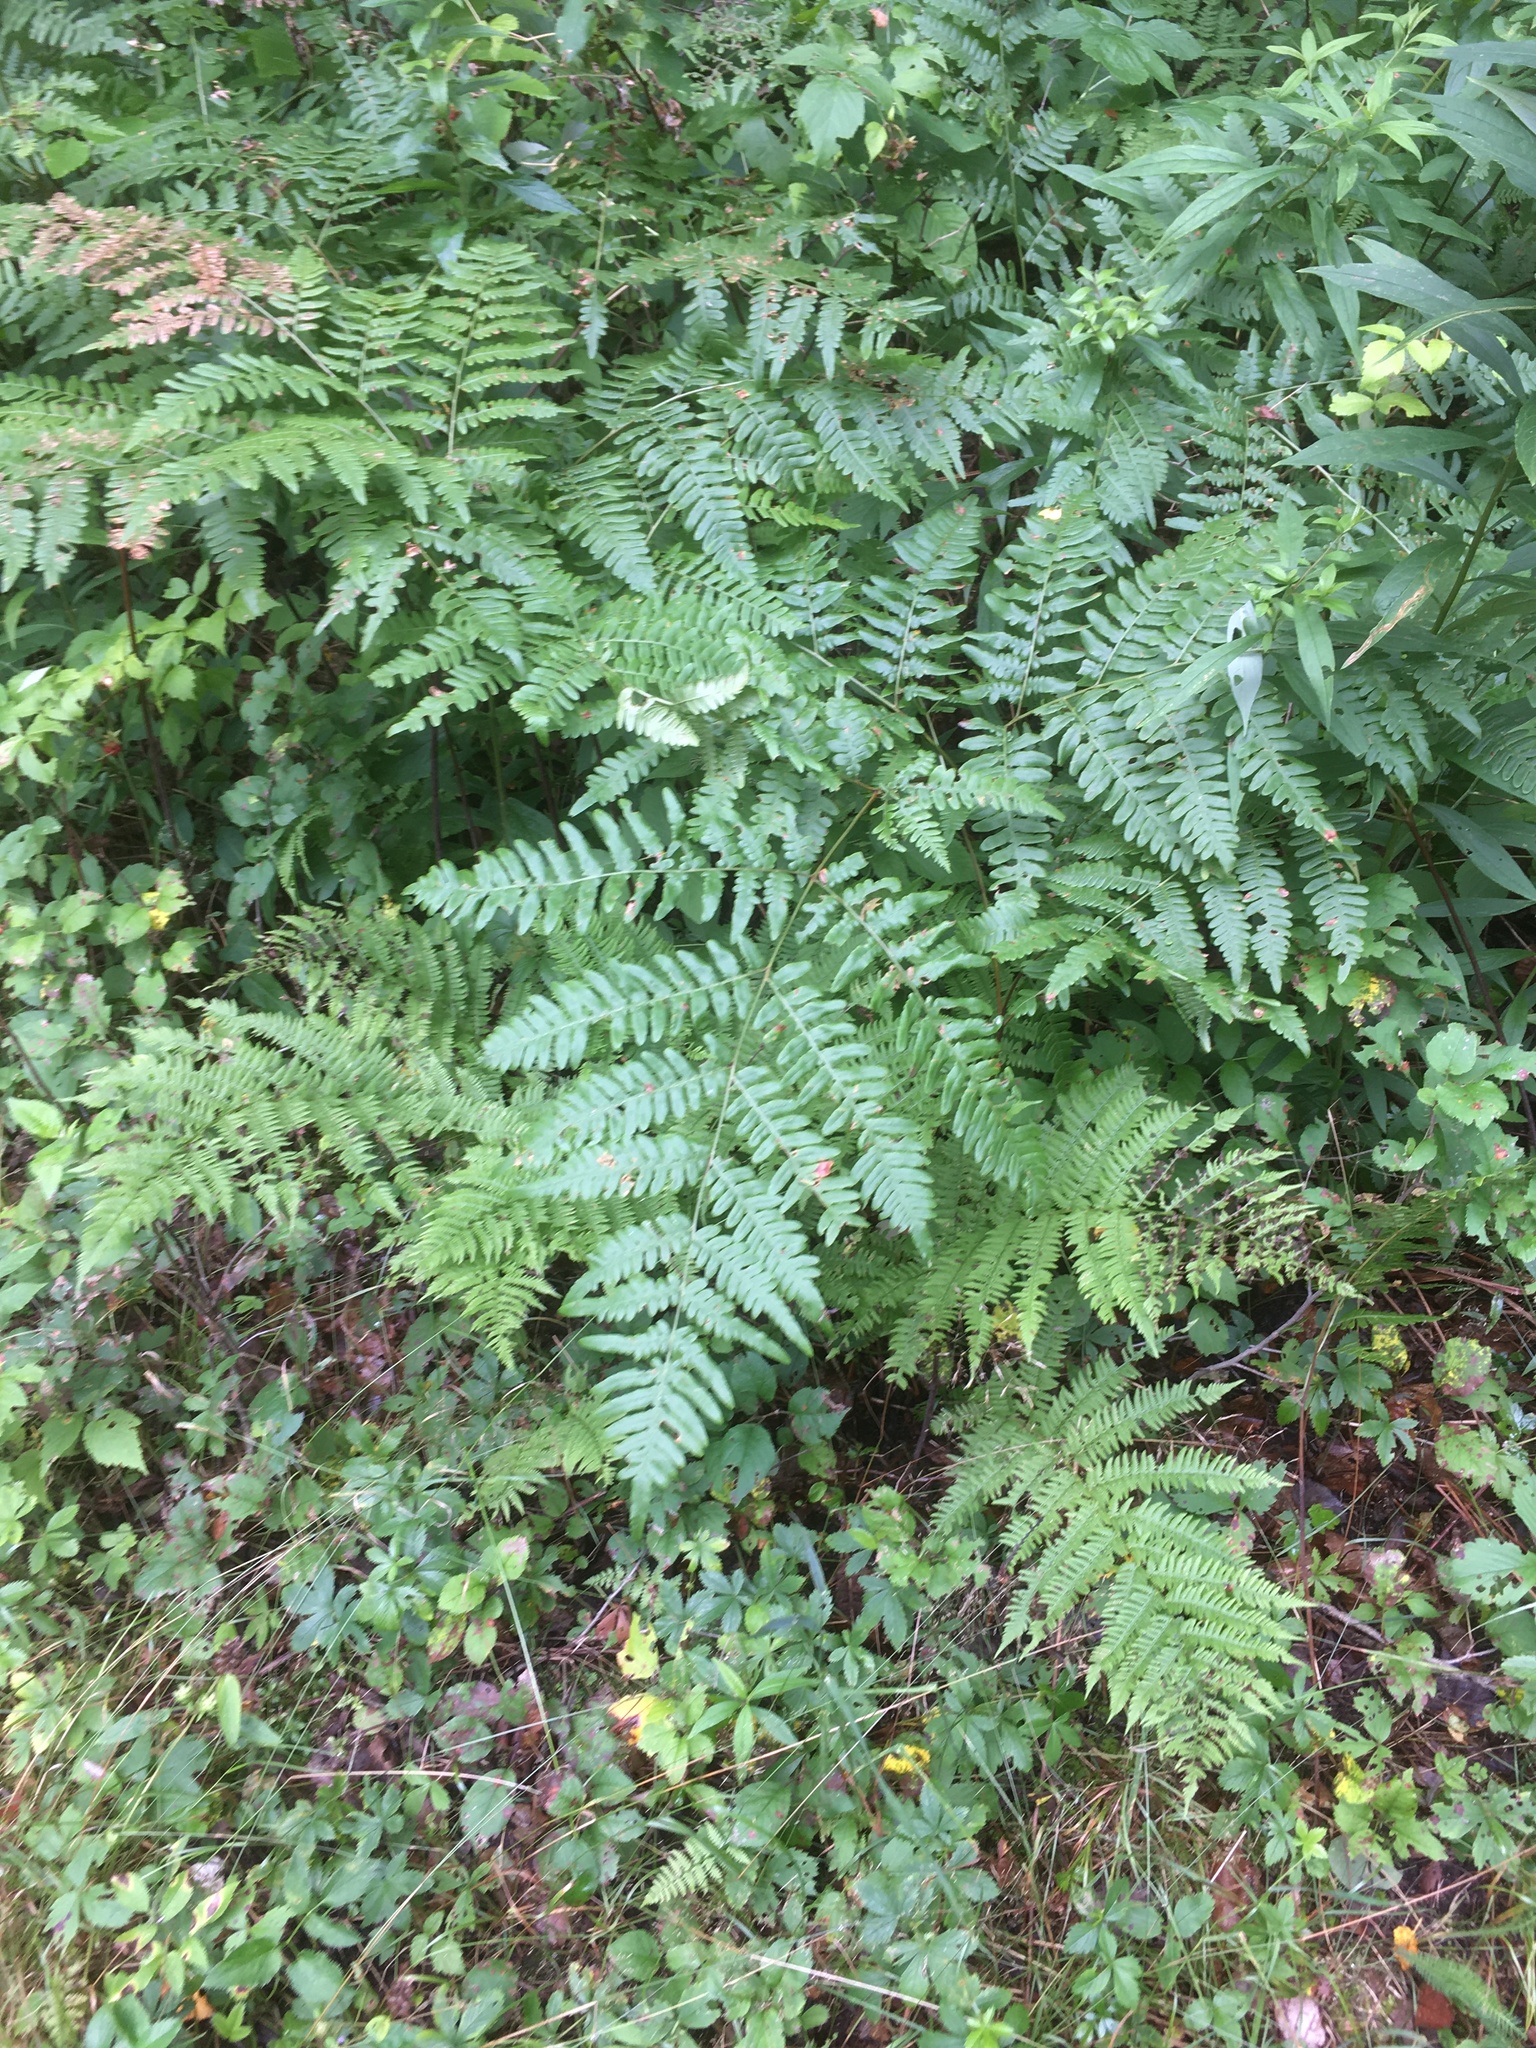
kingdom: Plantae
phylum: Tracheophyta
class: Polypodiopsida
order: Polypodiales
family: Dennstaedtiaceae
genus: Pteridium
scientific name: Pteridium aquilinum
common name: Bracken
